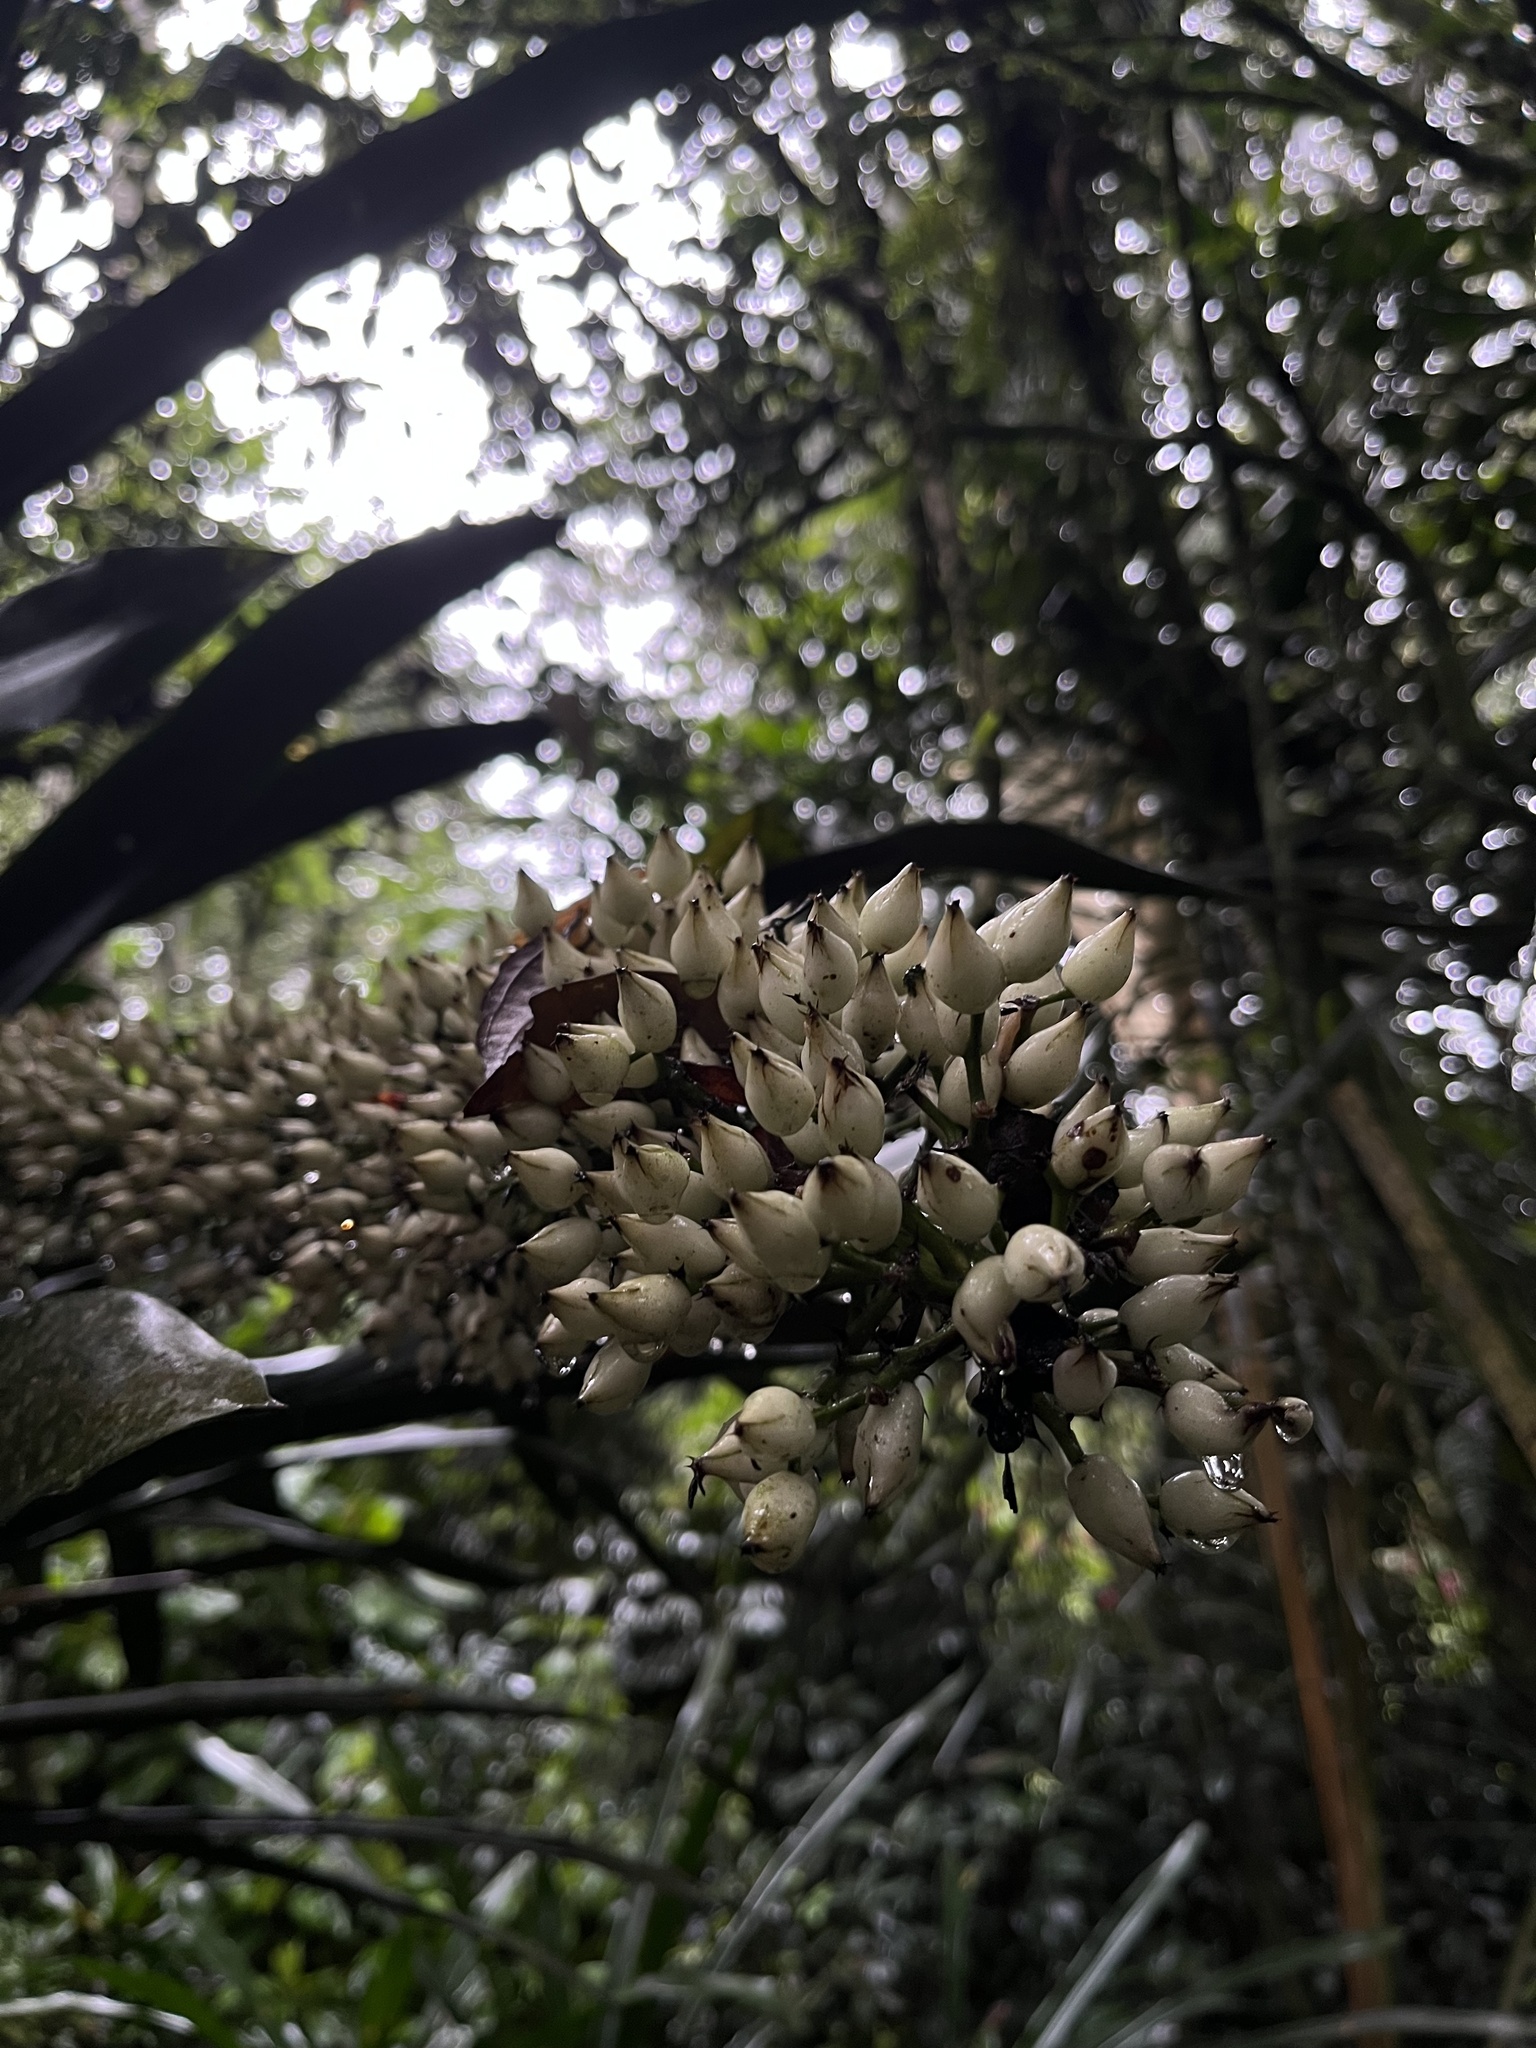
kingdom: Plantae
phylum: Tracheophyta
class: Liliopsida
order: Poales
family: Bromeliaceae
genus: Aechmea
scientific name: Aechmea latifolia
